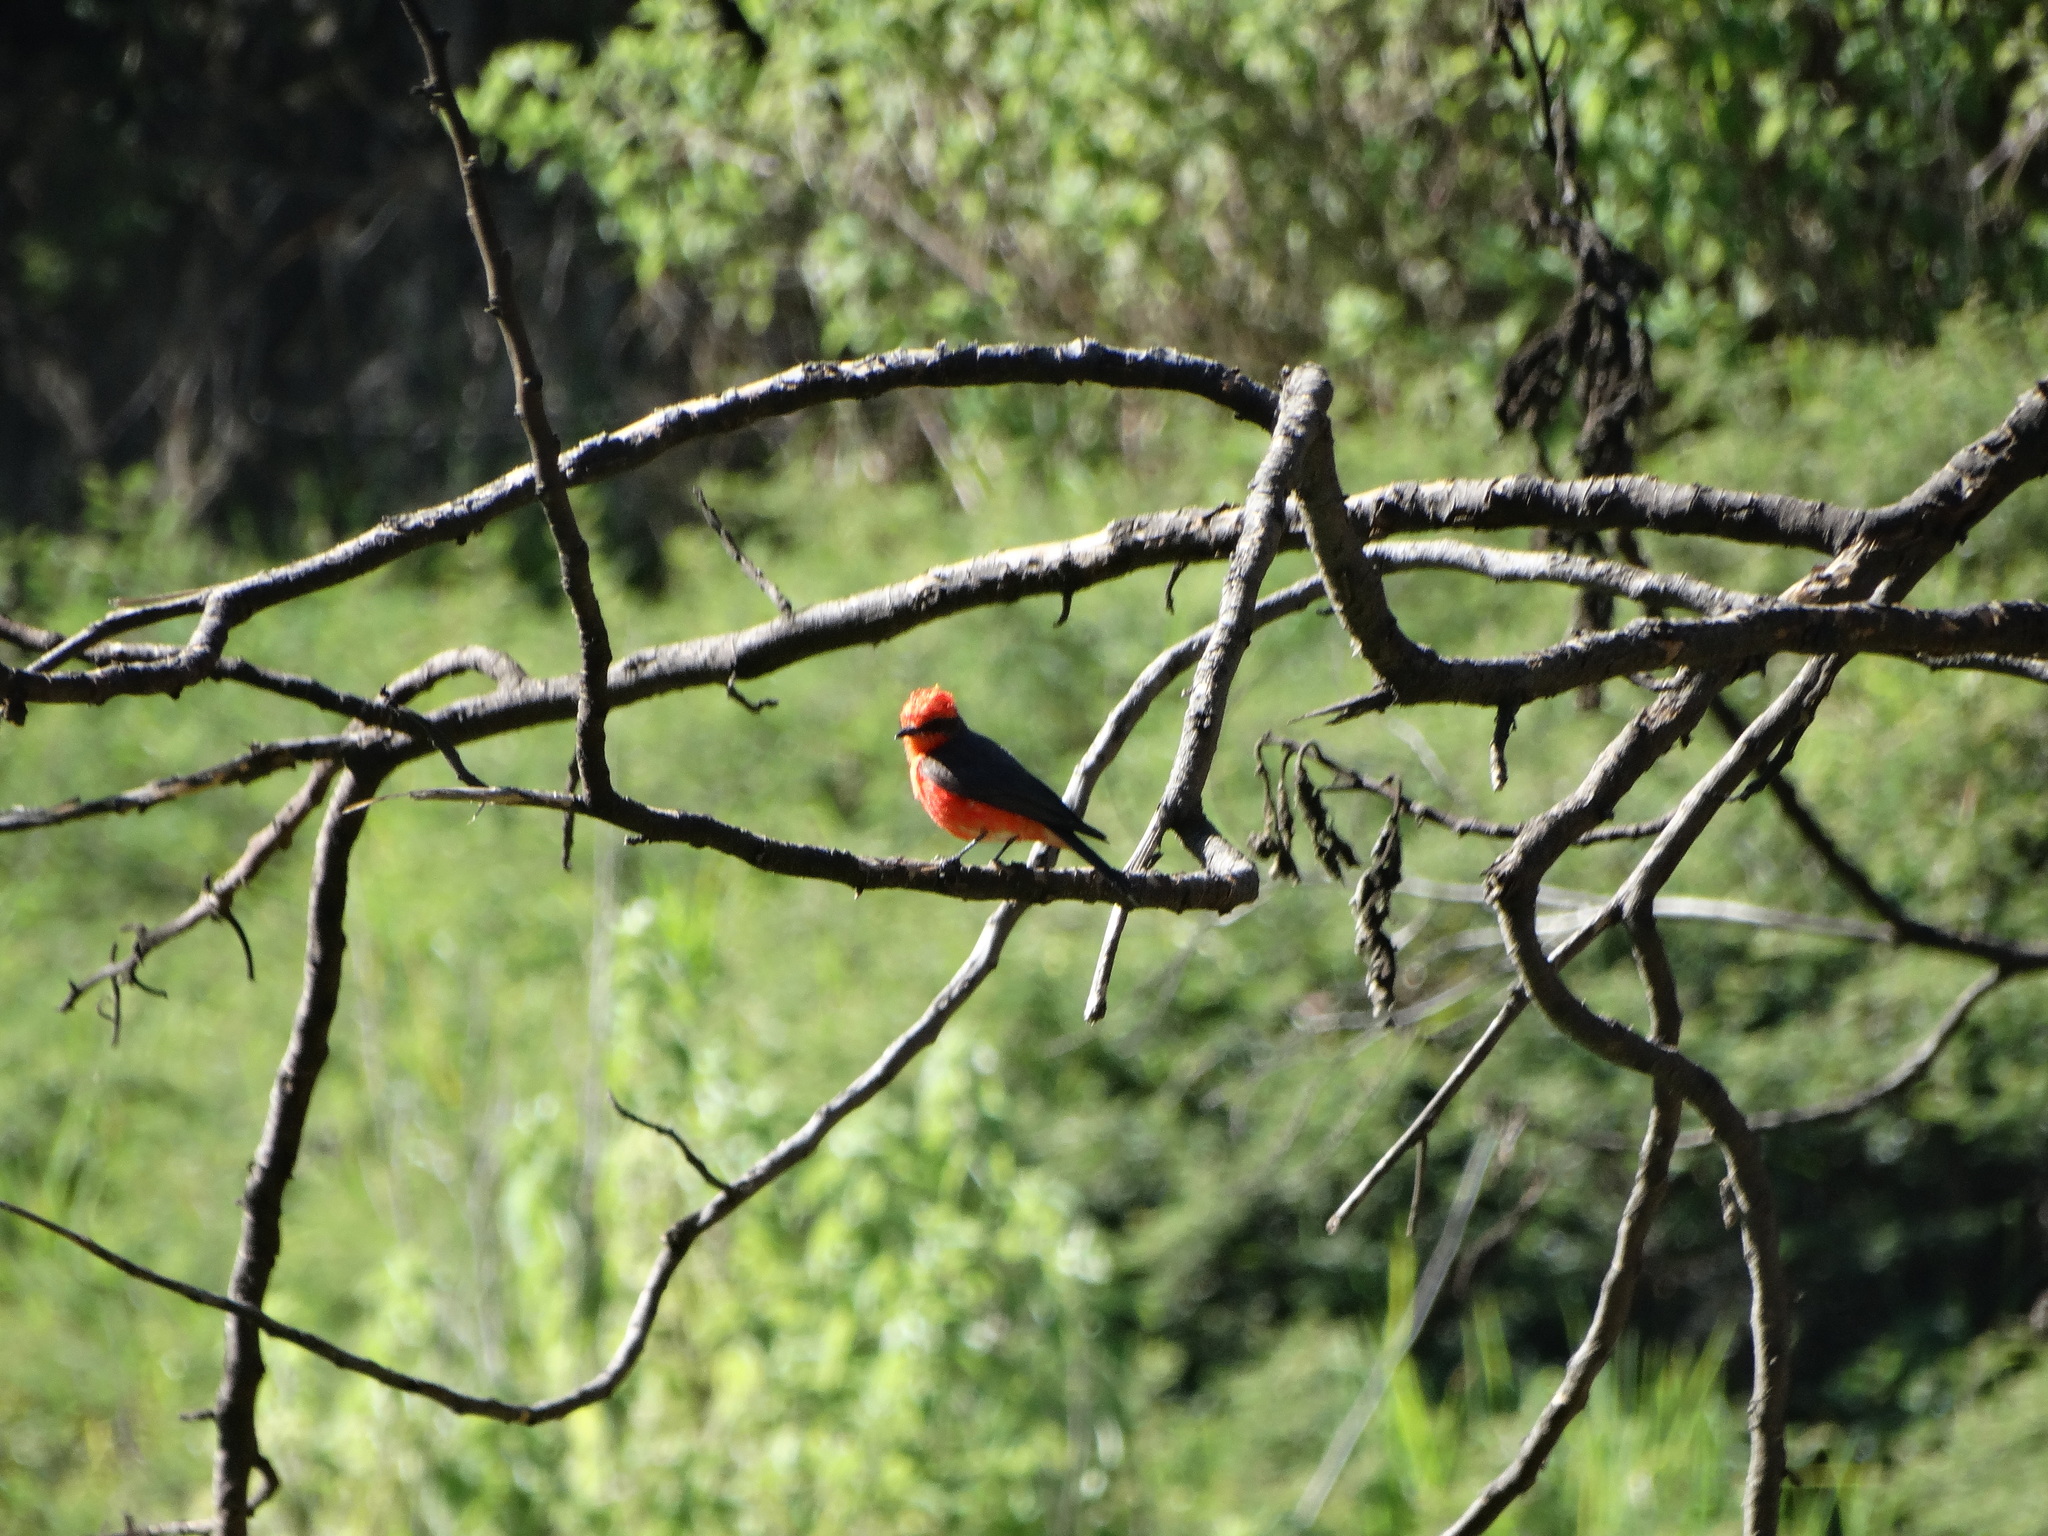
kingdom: Animalia
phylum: Chordata
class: Aves
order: Passeriformes
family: Tyrannidae
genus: Pyrocephalus
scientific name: Pyrocephalus rubinus
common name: Vermilion flycatcher
